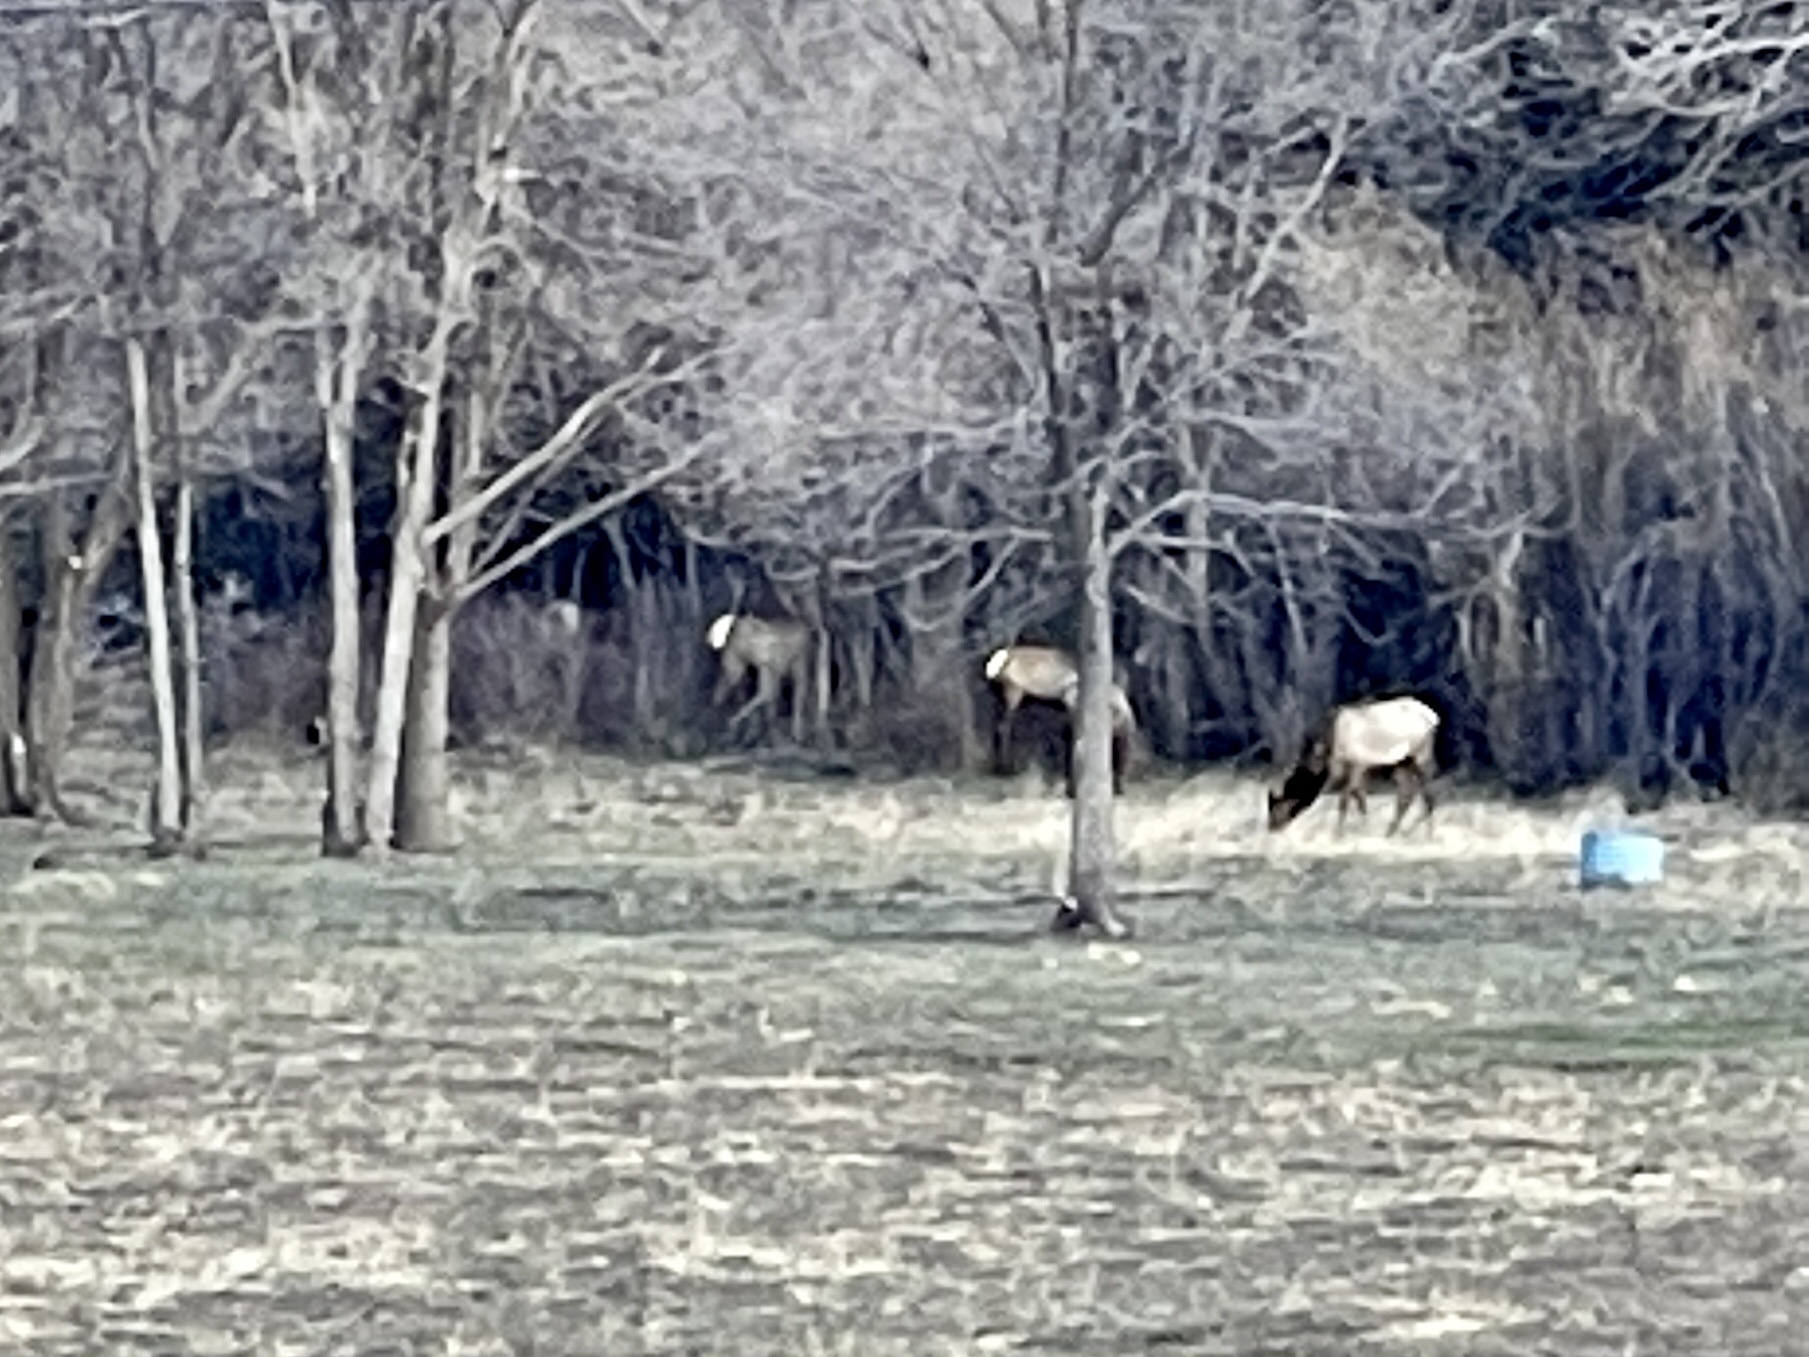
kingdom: Animalia
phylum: Chordata
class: Mammalia
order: Artiodactyla
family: Cervidae
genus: Cervus
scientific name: Cervus elaphus
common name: Red deer
